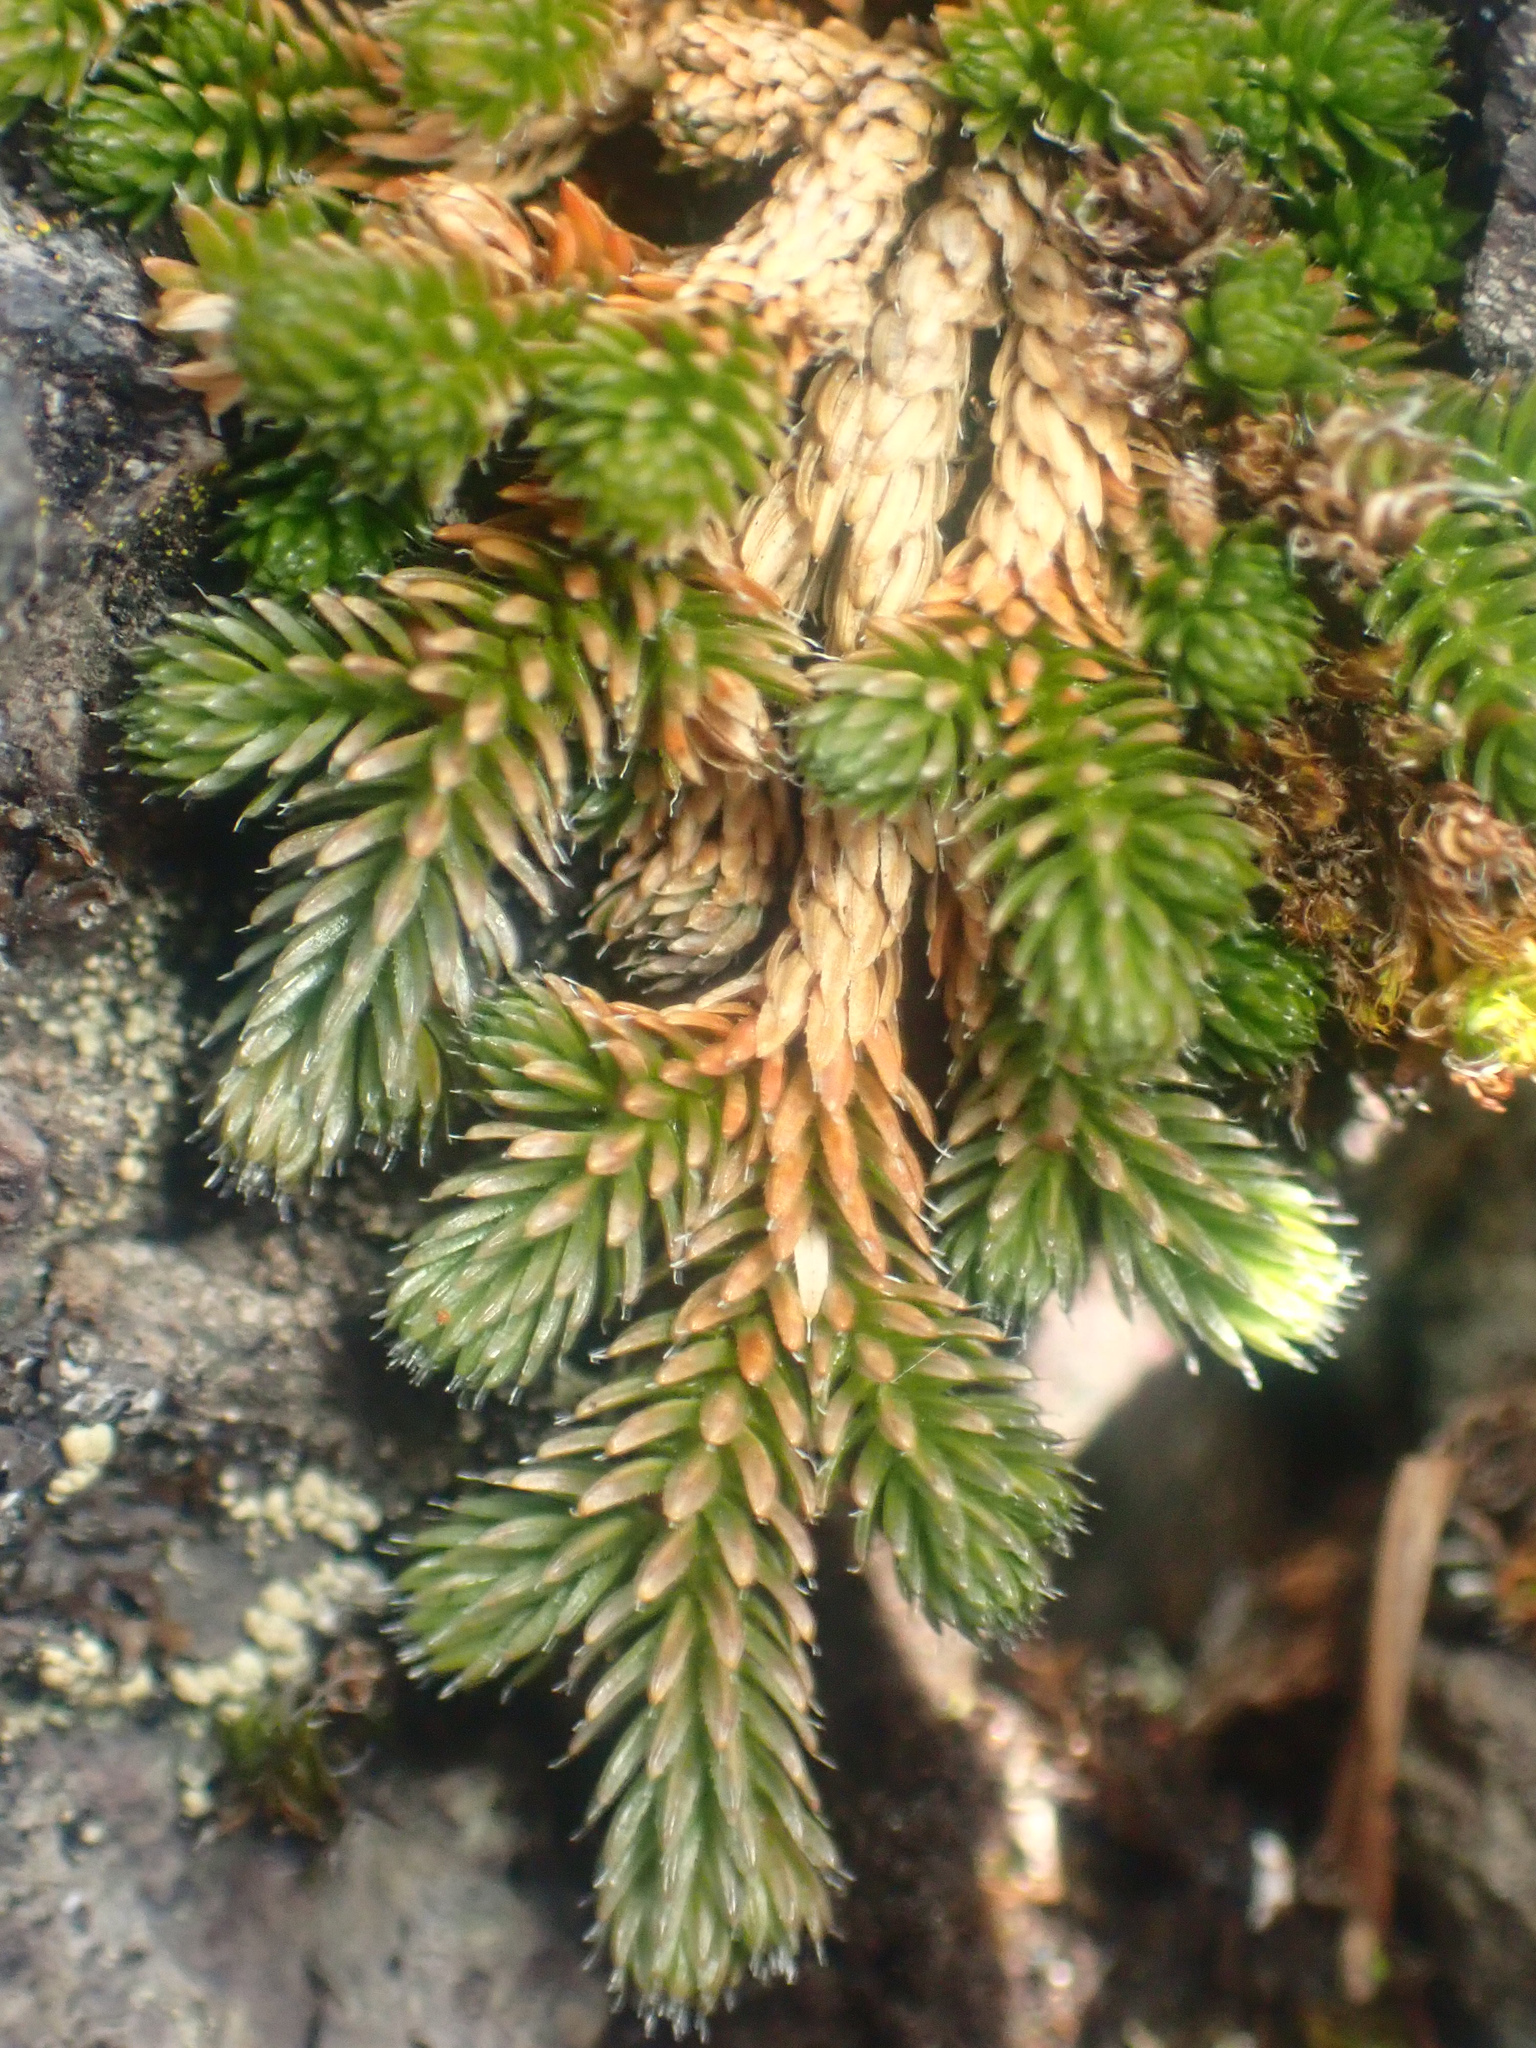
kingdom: Plantae
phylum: Tracheophyta
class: Lycopodiopsida
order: Selaginellales
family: Selaginellaceae
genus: Selaginella
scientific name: Selaginella wallacei
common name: Wallace's selaginella
